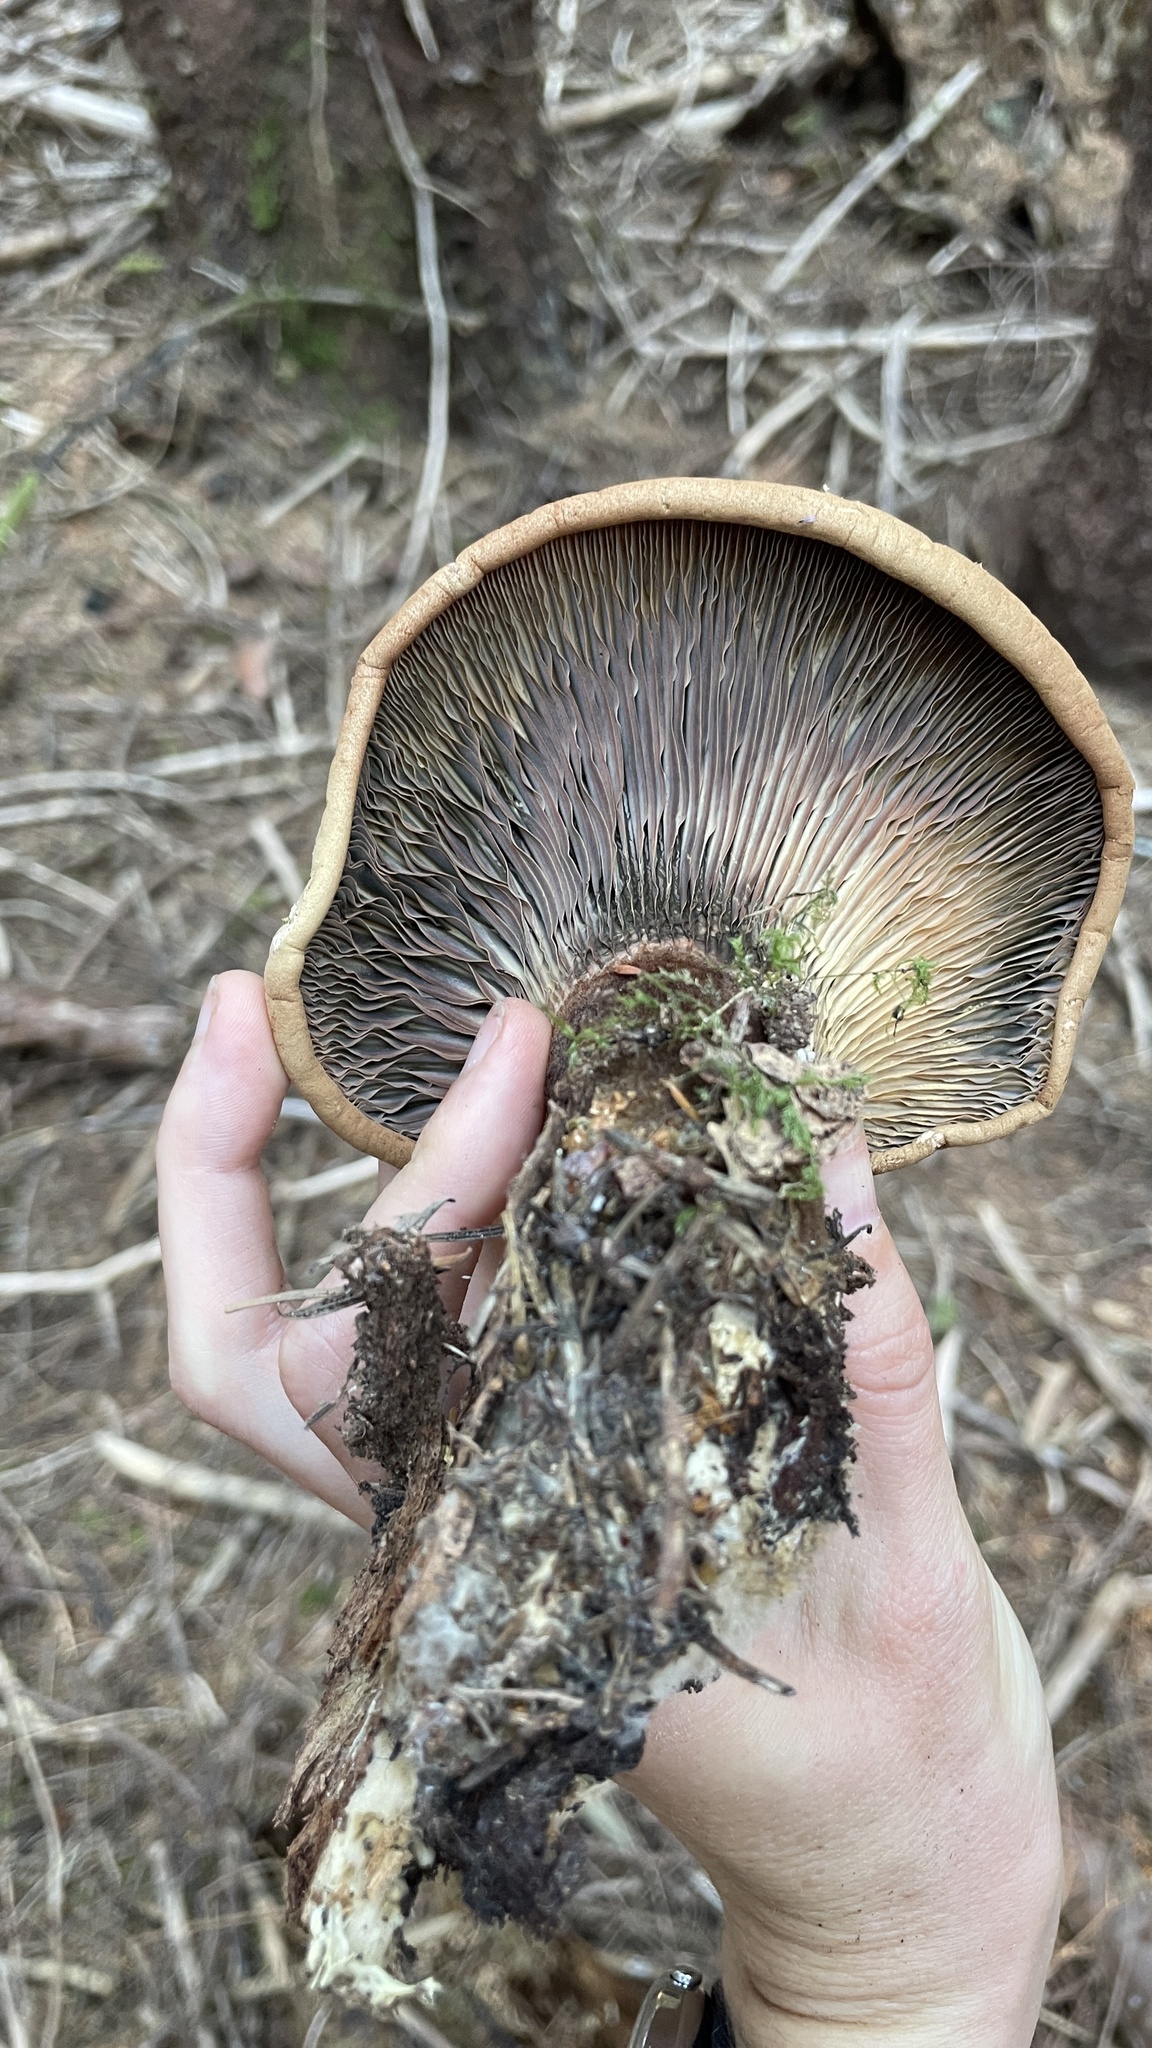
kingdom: Fungi
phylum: Basidiomycota
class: Agaricomycetes
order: Boletales
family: Tapinellaceae
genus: Tapinella
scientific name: Tapinella atrotomentosa
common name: Velvet rollrim
